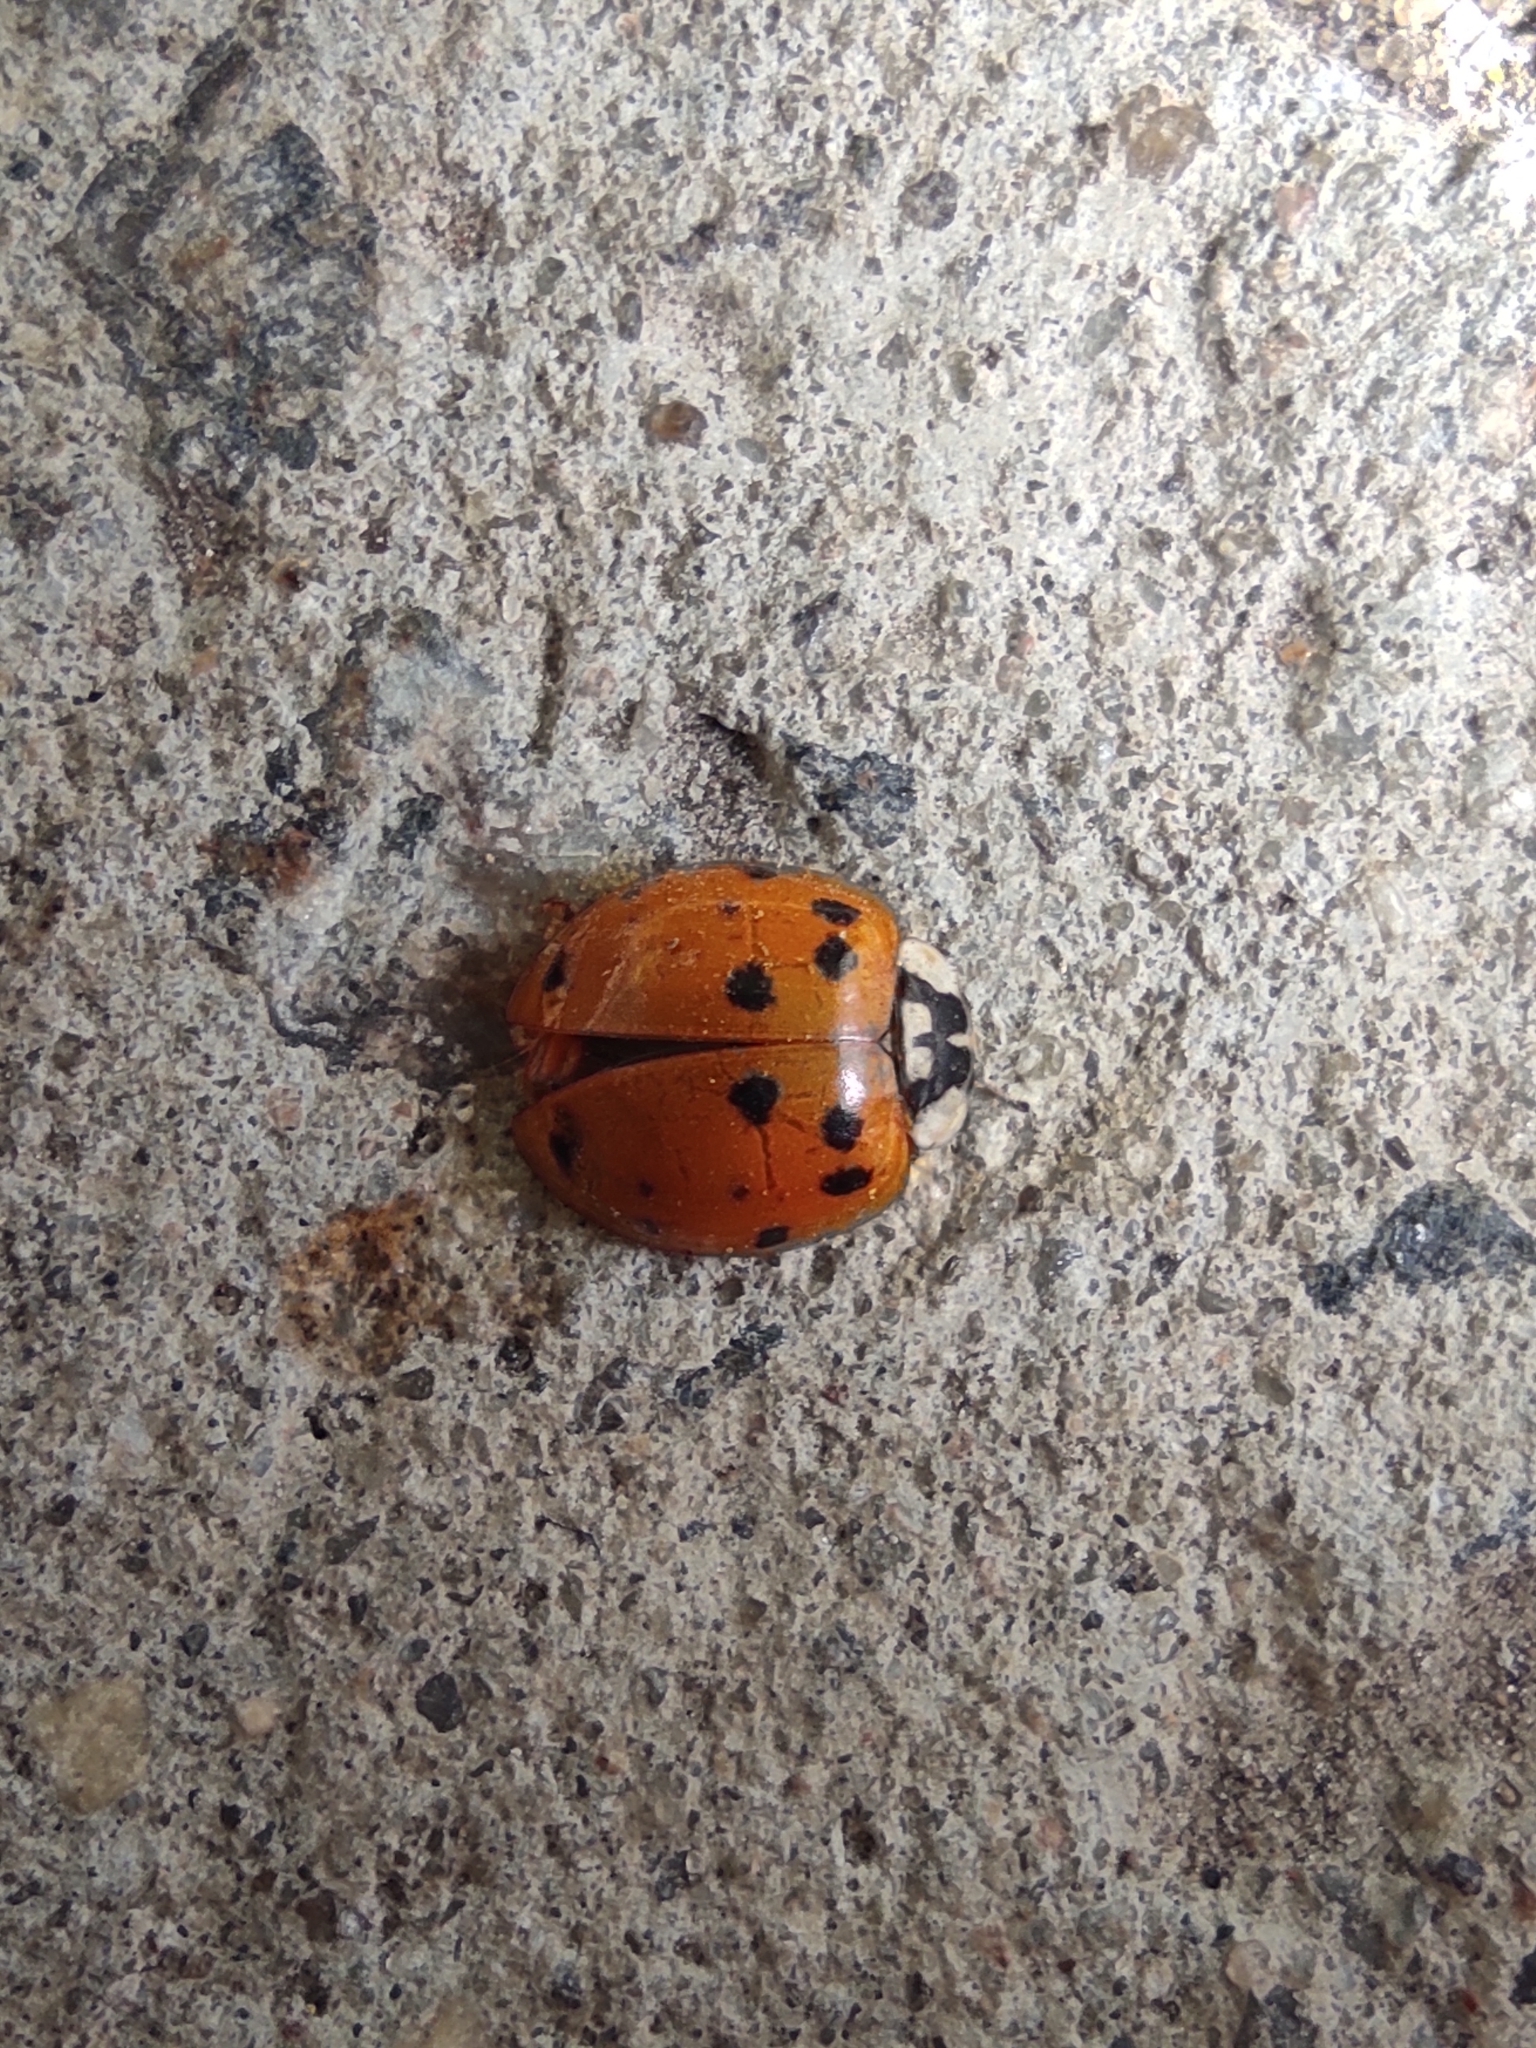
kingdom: Animalia
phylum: Arthropoda
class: Insecta
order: Coleoptera
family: Coccinellidae
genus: Harmonia
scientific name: Harmonia axyridis
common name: Harlequin ladybird
